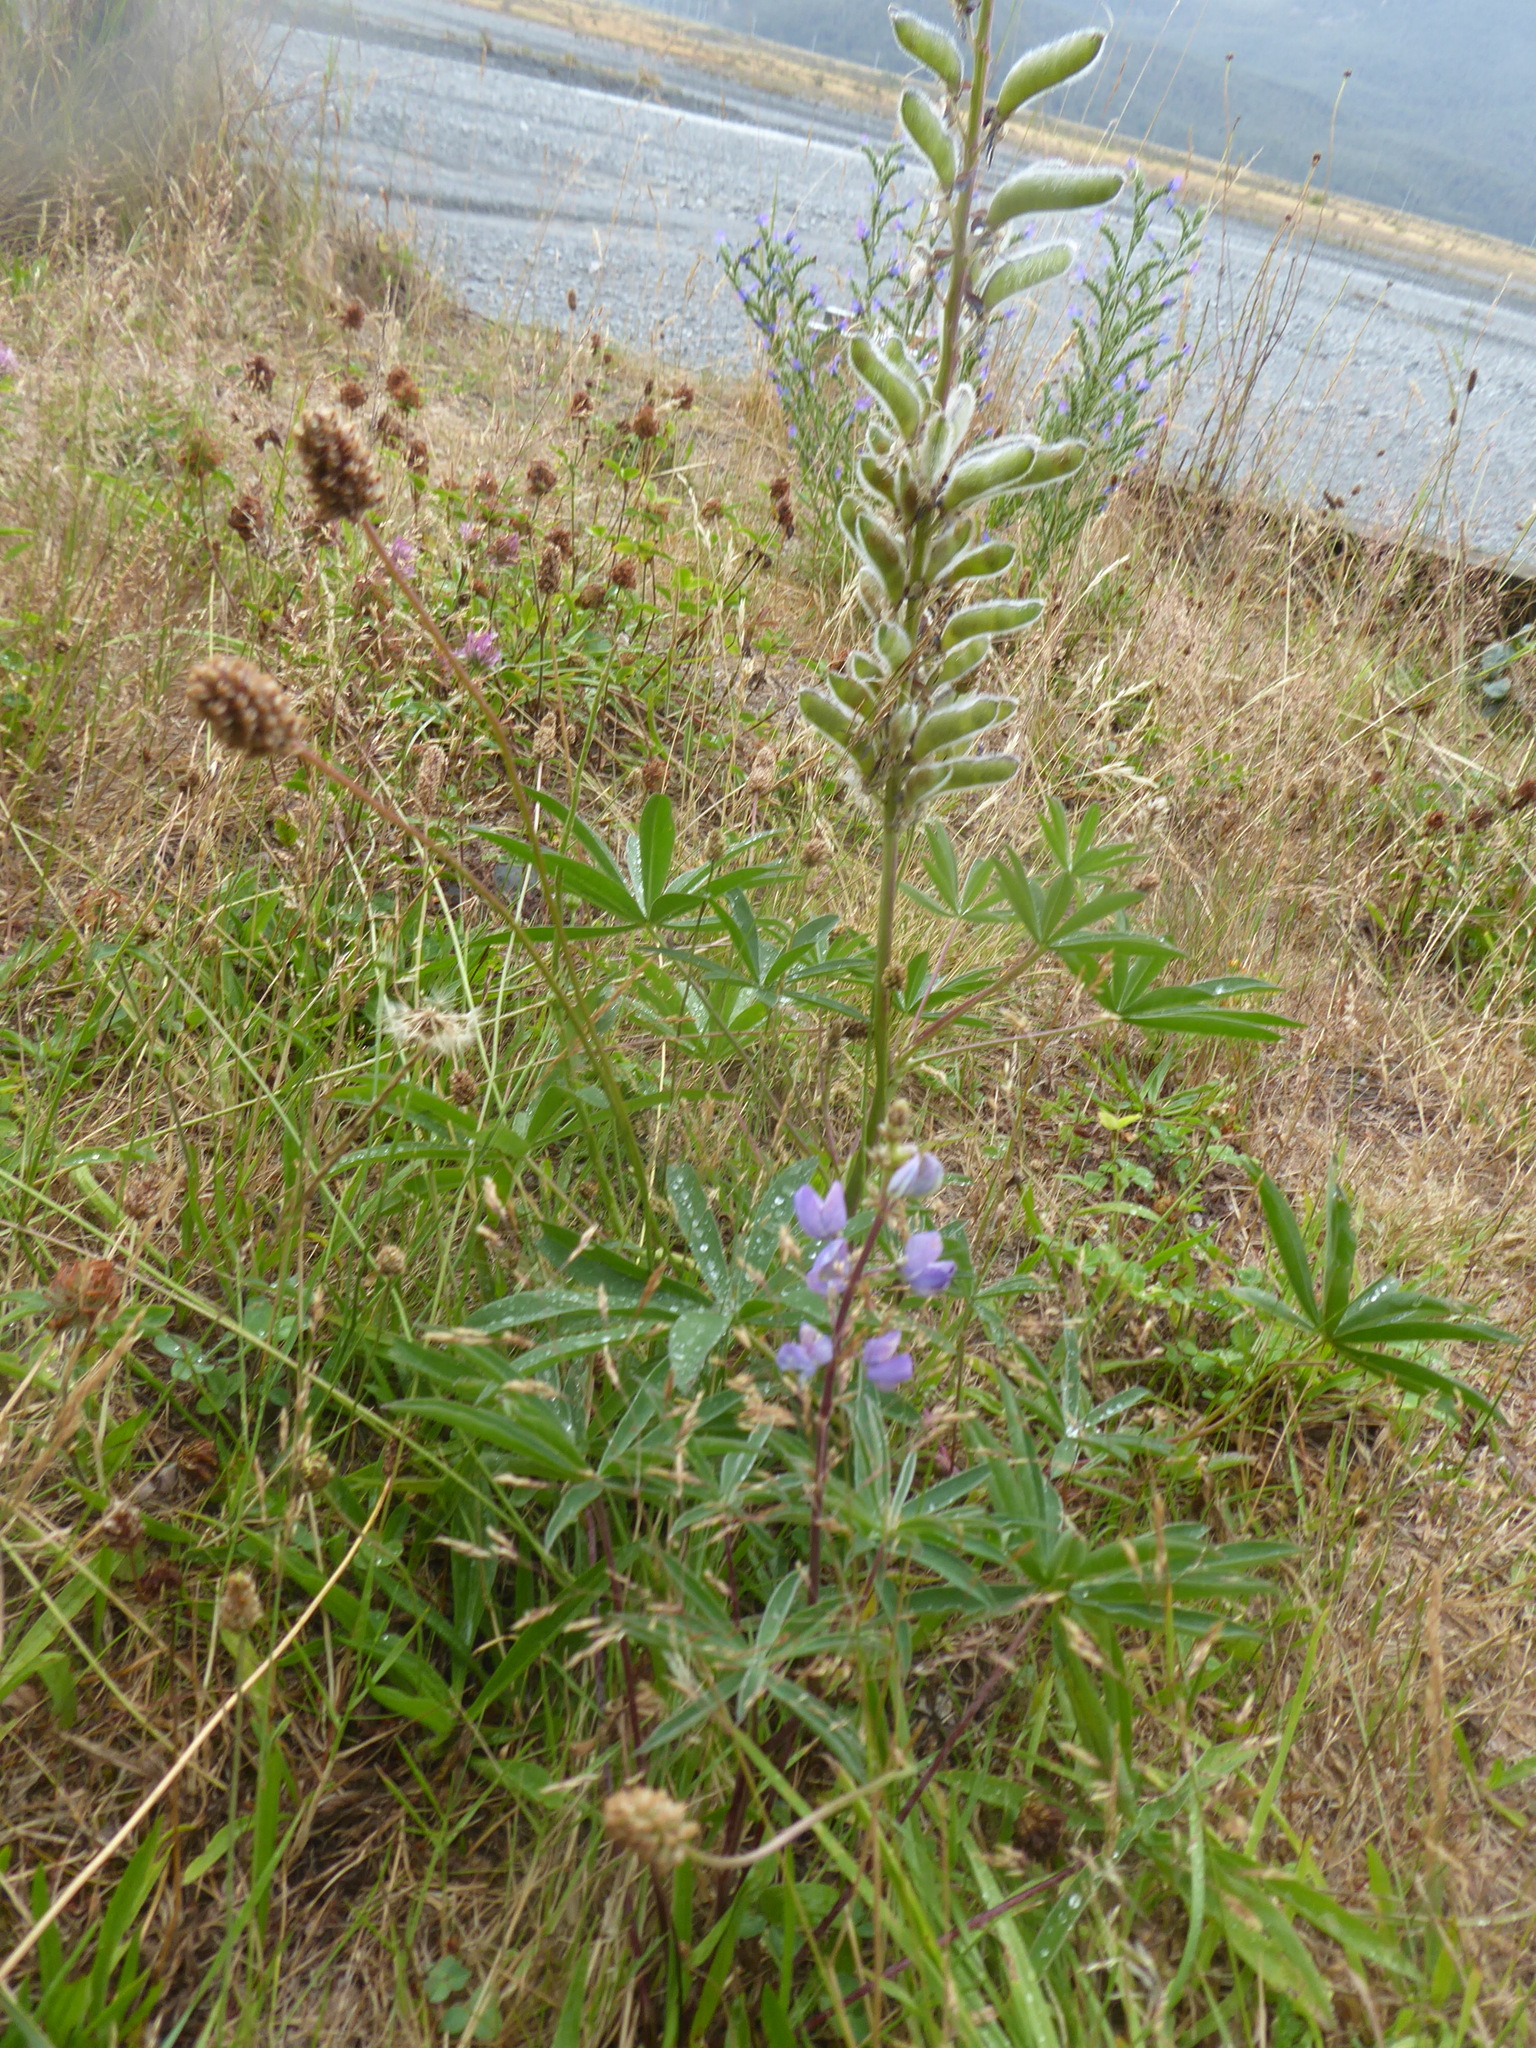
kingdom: Plantae
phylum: Tracheophyta
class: Magnoliopsida
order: Fabales
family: Fabaceae
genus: Lupinus
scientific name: Lupinus polyphyllus
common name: Garden lupin
